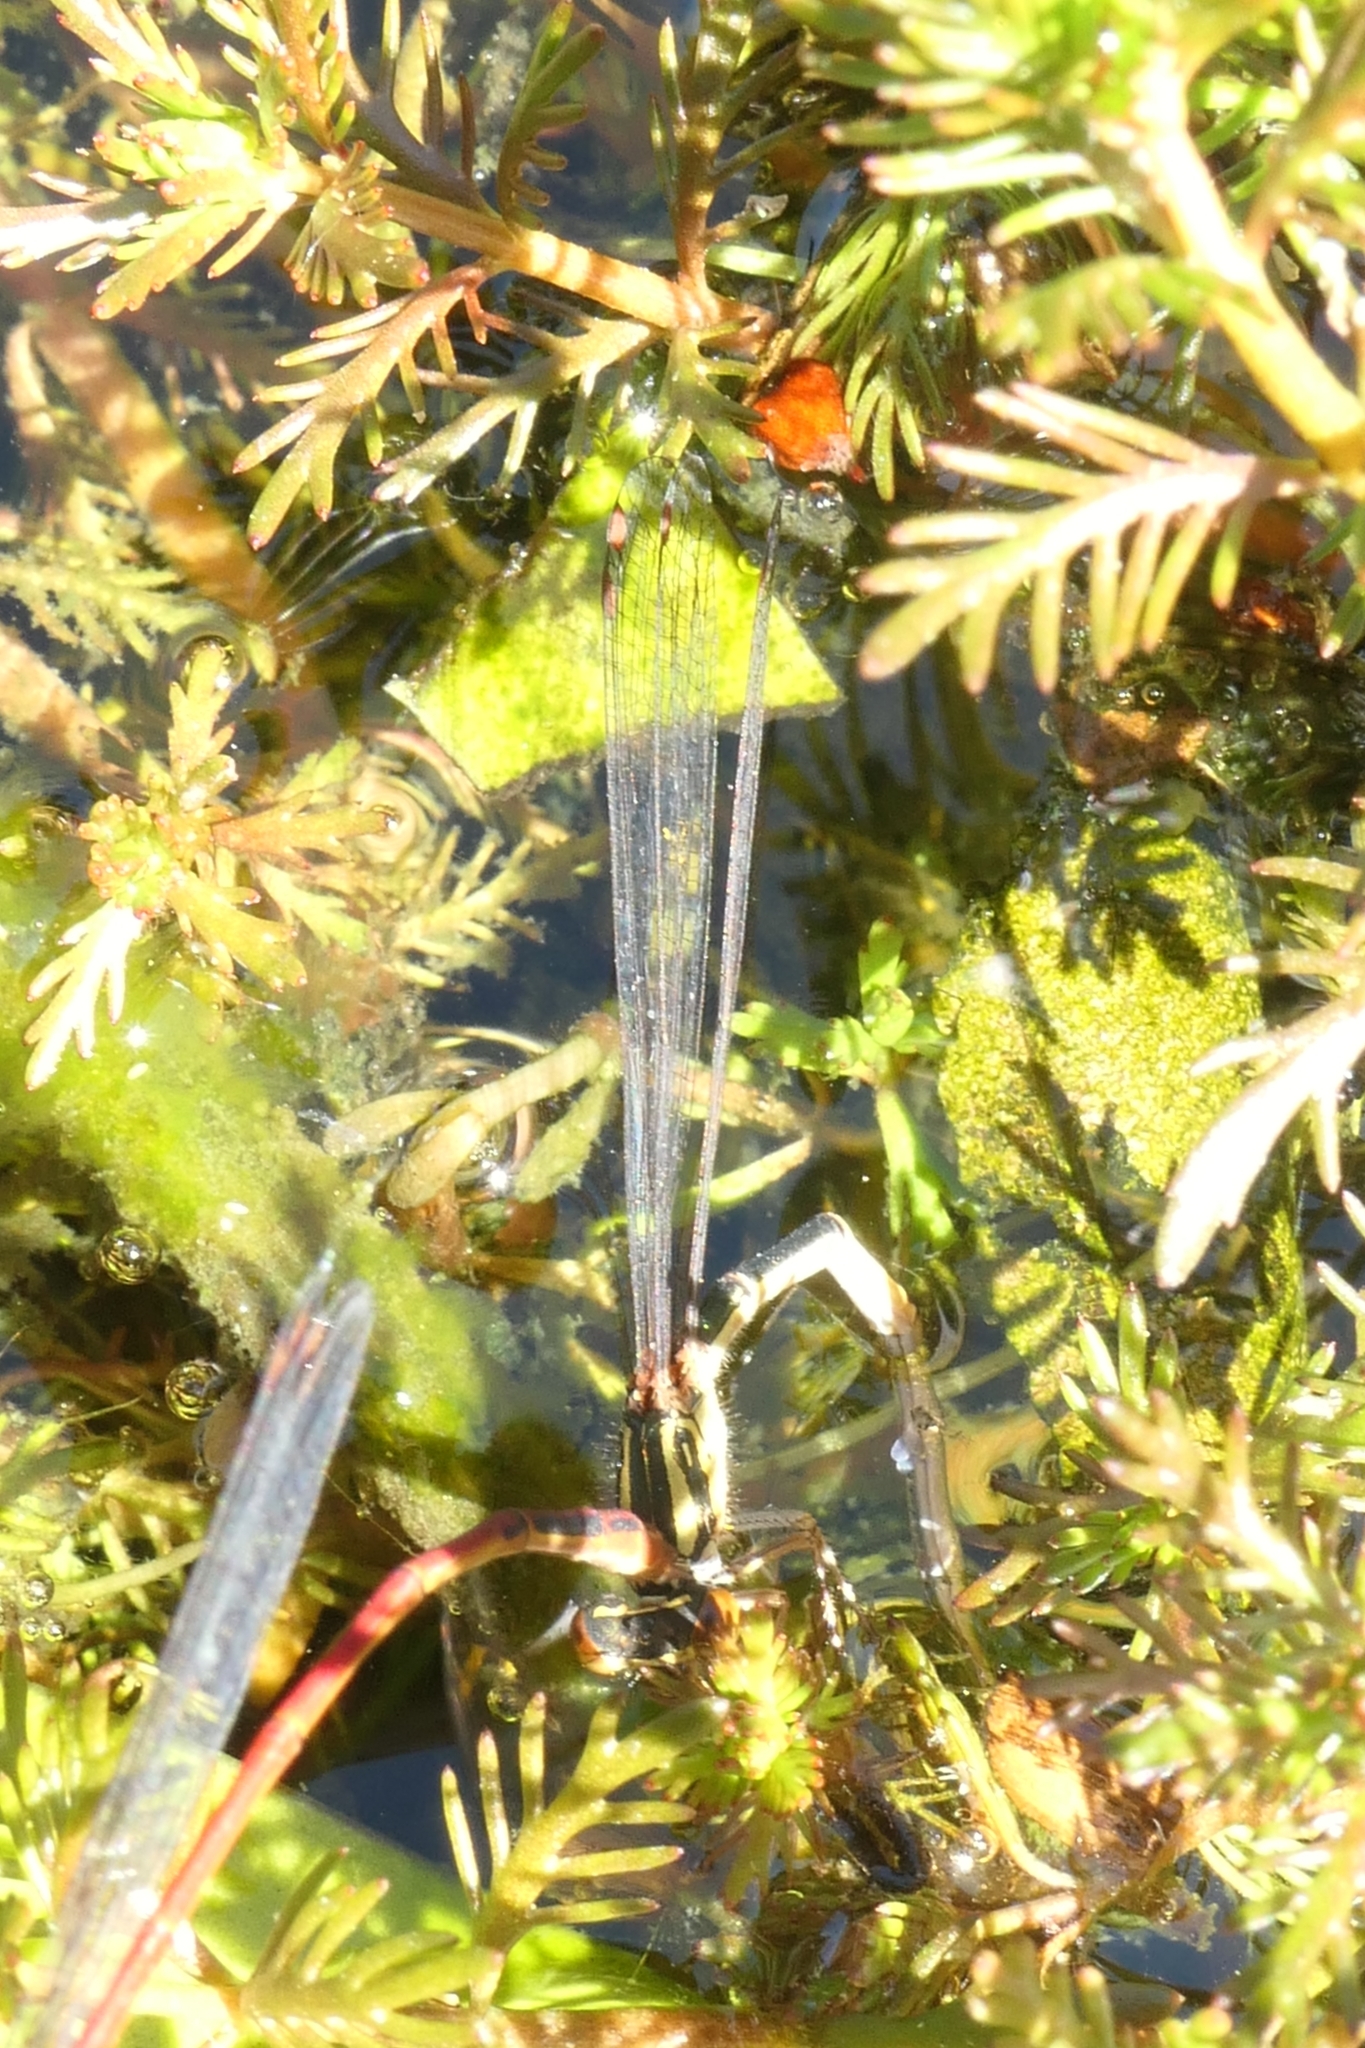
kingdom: Animalia
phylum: Arthropoda
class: Insecta
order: Odonata
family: Coenagrionidae
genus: Xanthocnemis
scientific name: Xanthocnemis zealandica
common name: Common redcoat damselfly
